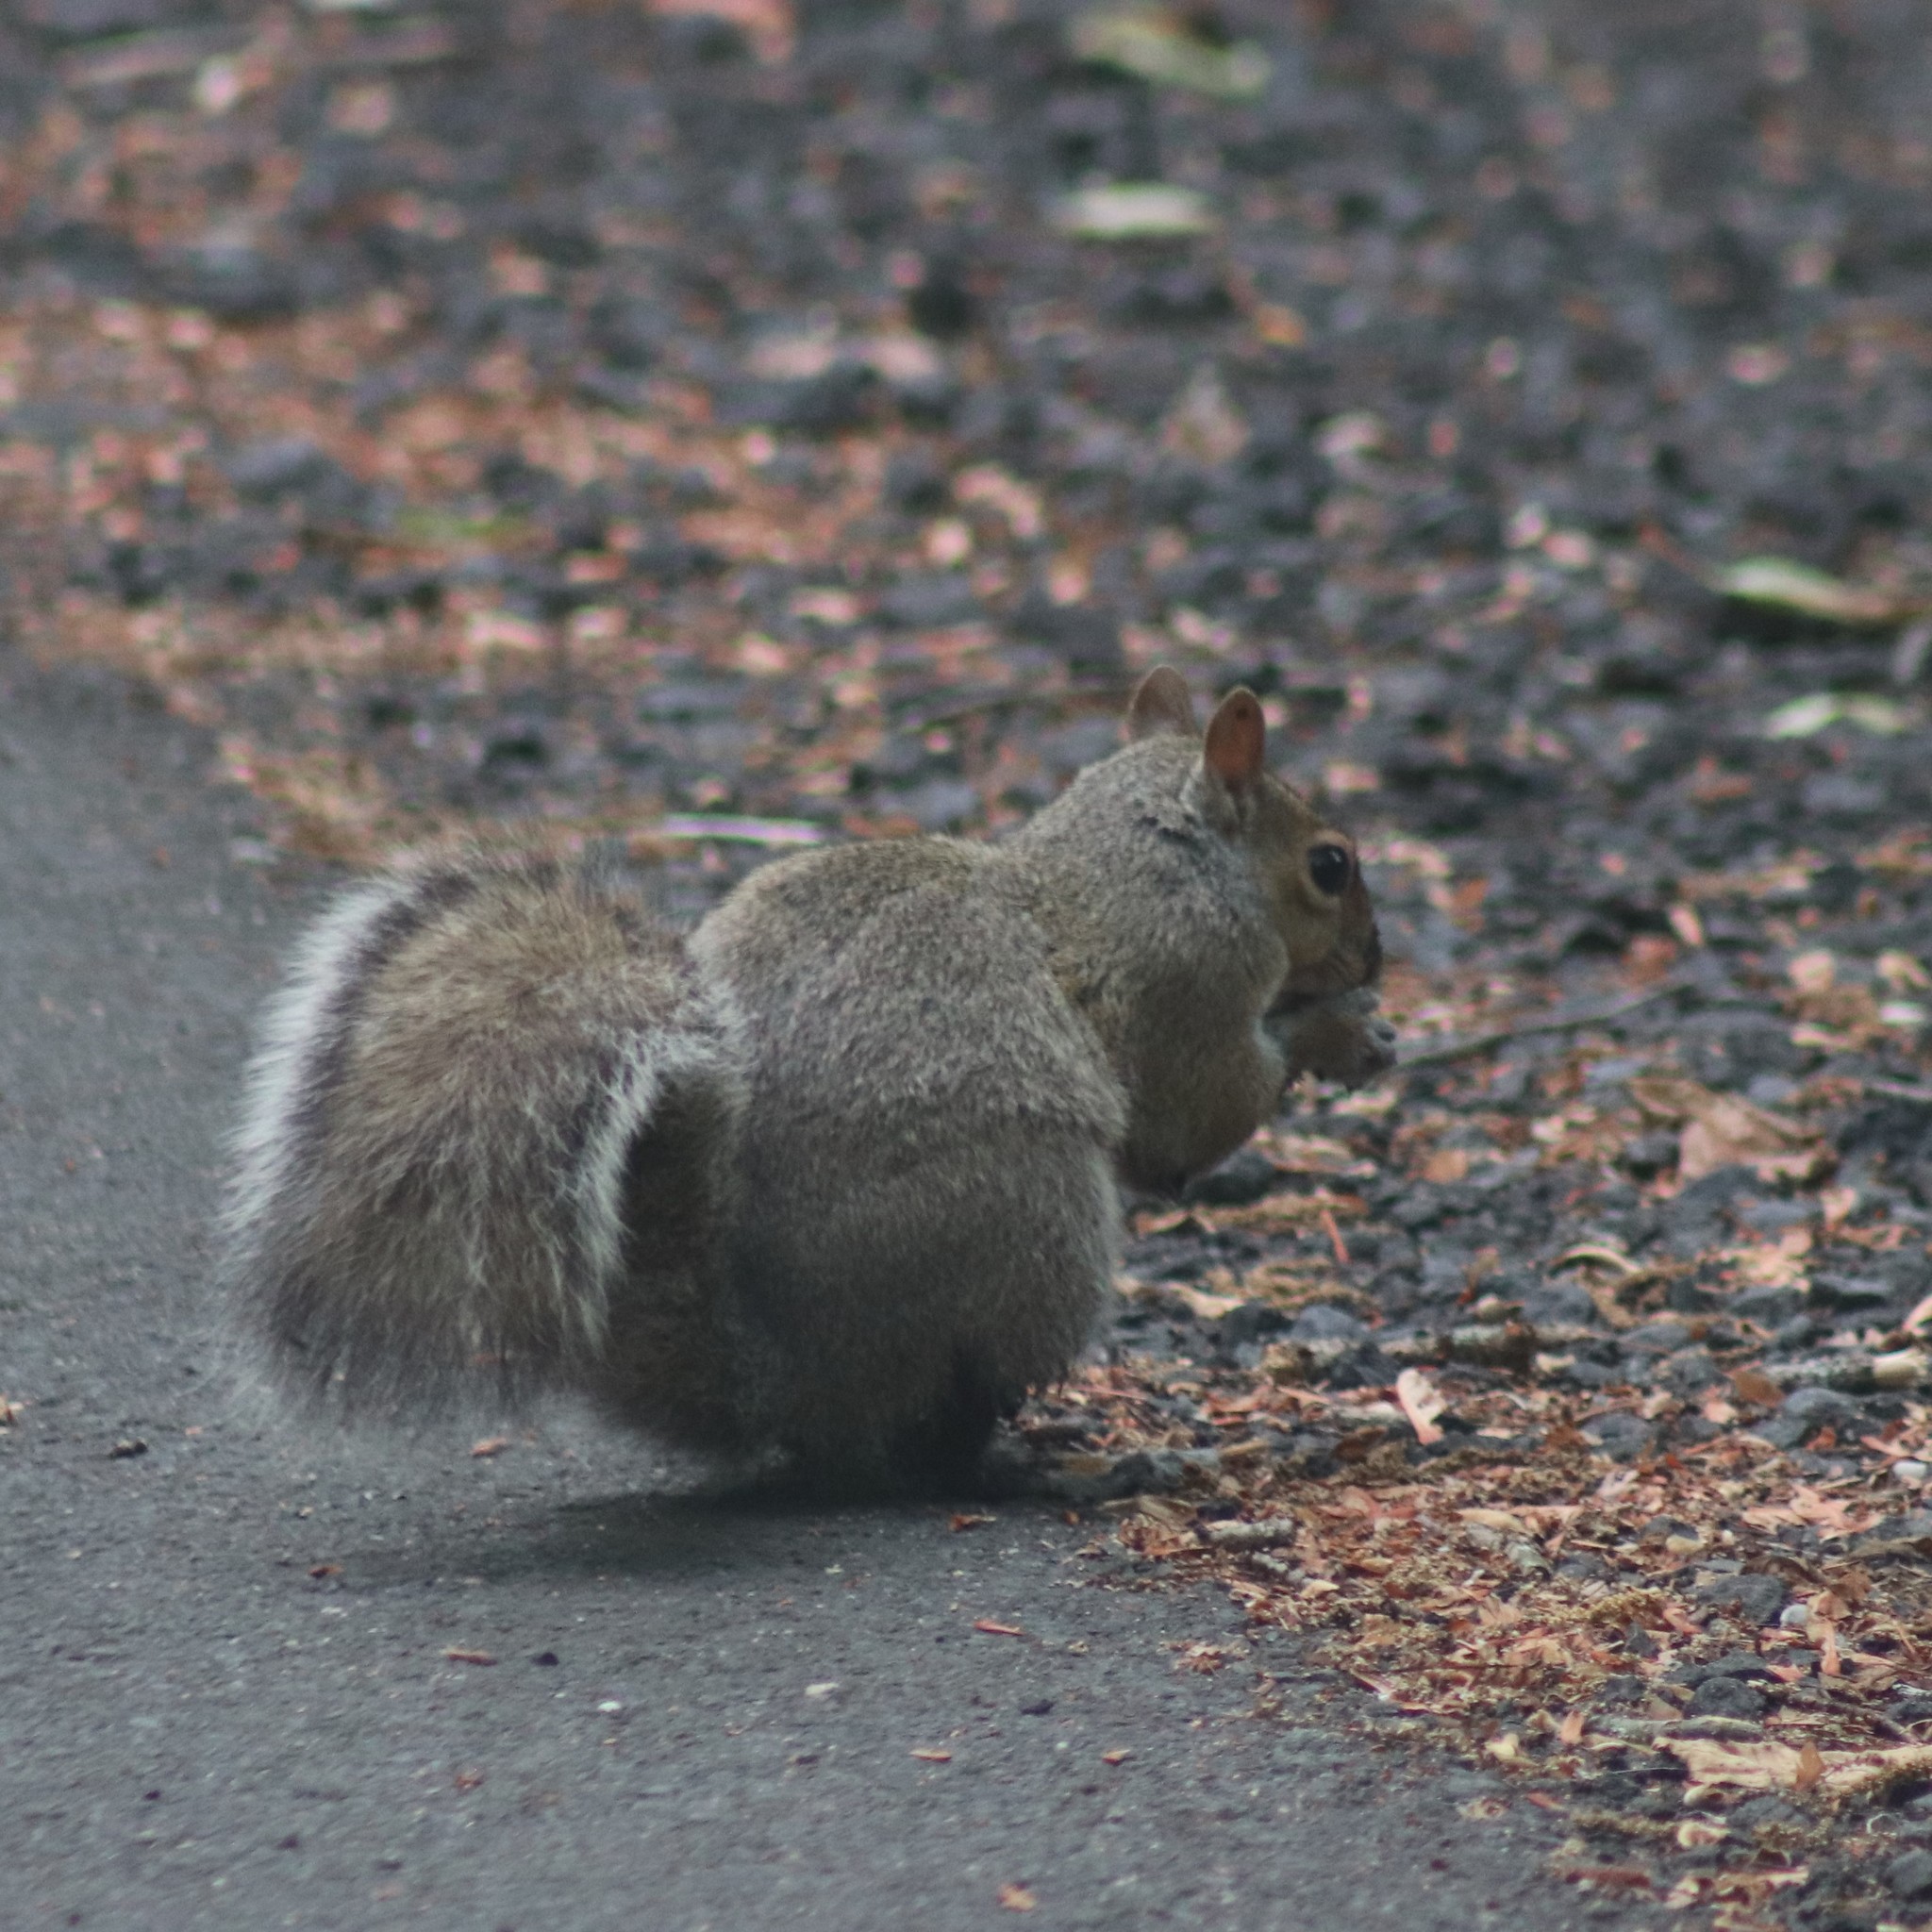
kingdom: Animalia
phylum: Chordata
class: Mammalia
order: Rodentia
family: Sciuridae
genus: Sciurus
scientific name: Sciurus carolinensis
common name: Eastern gray squirrel
